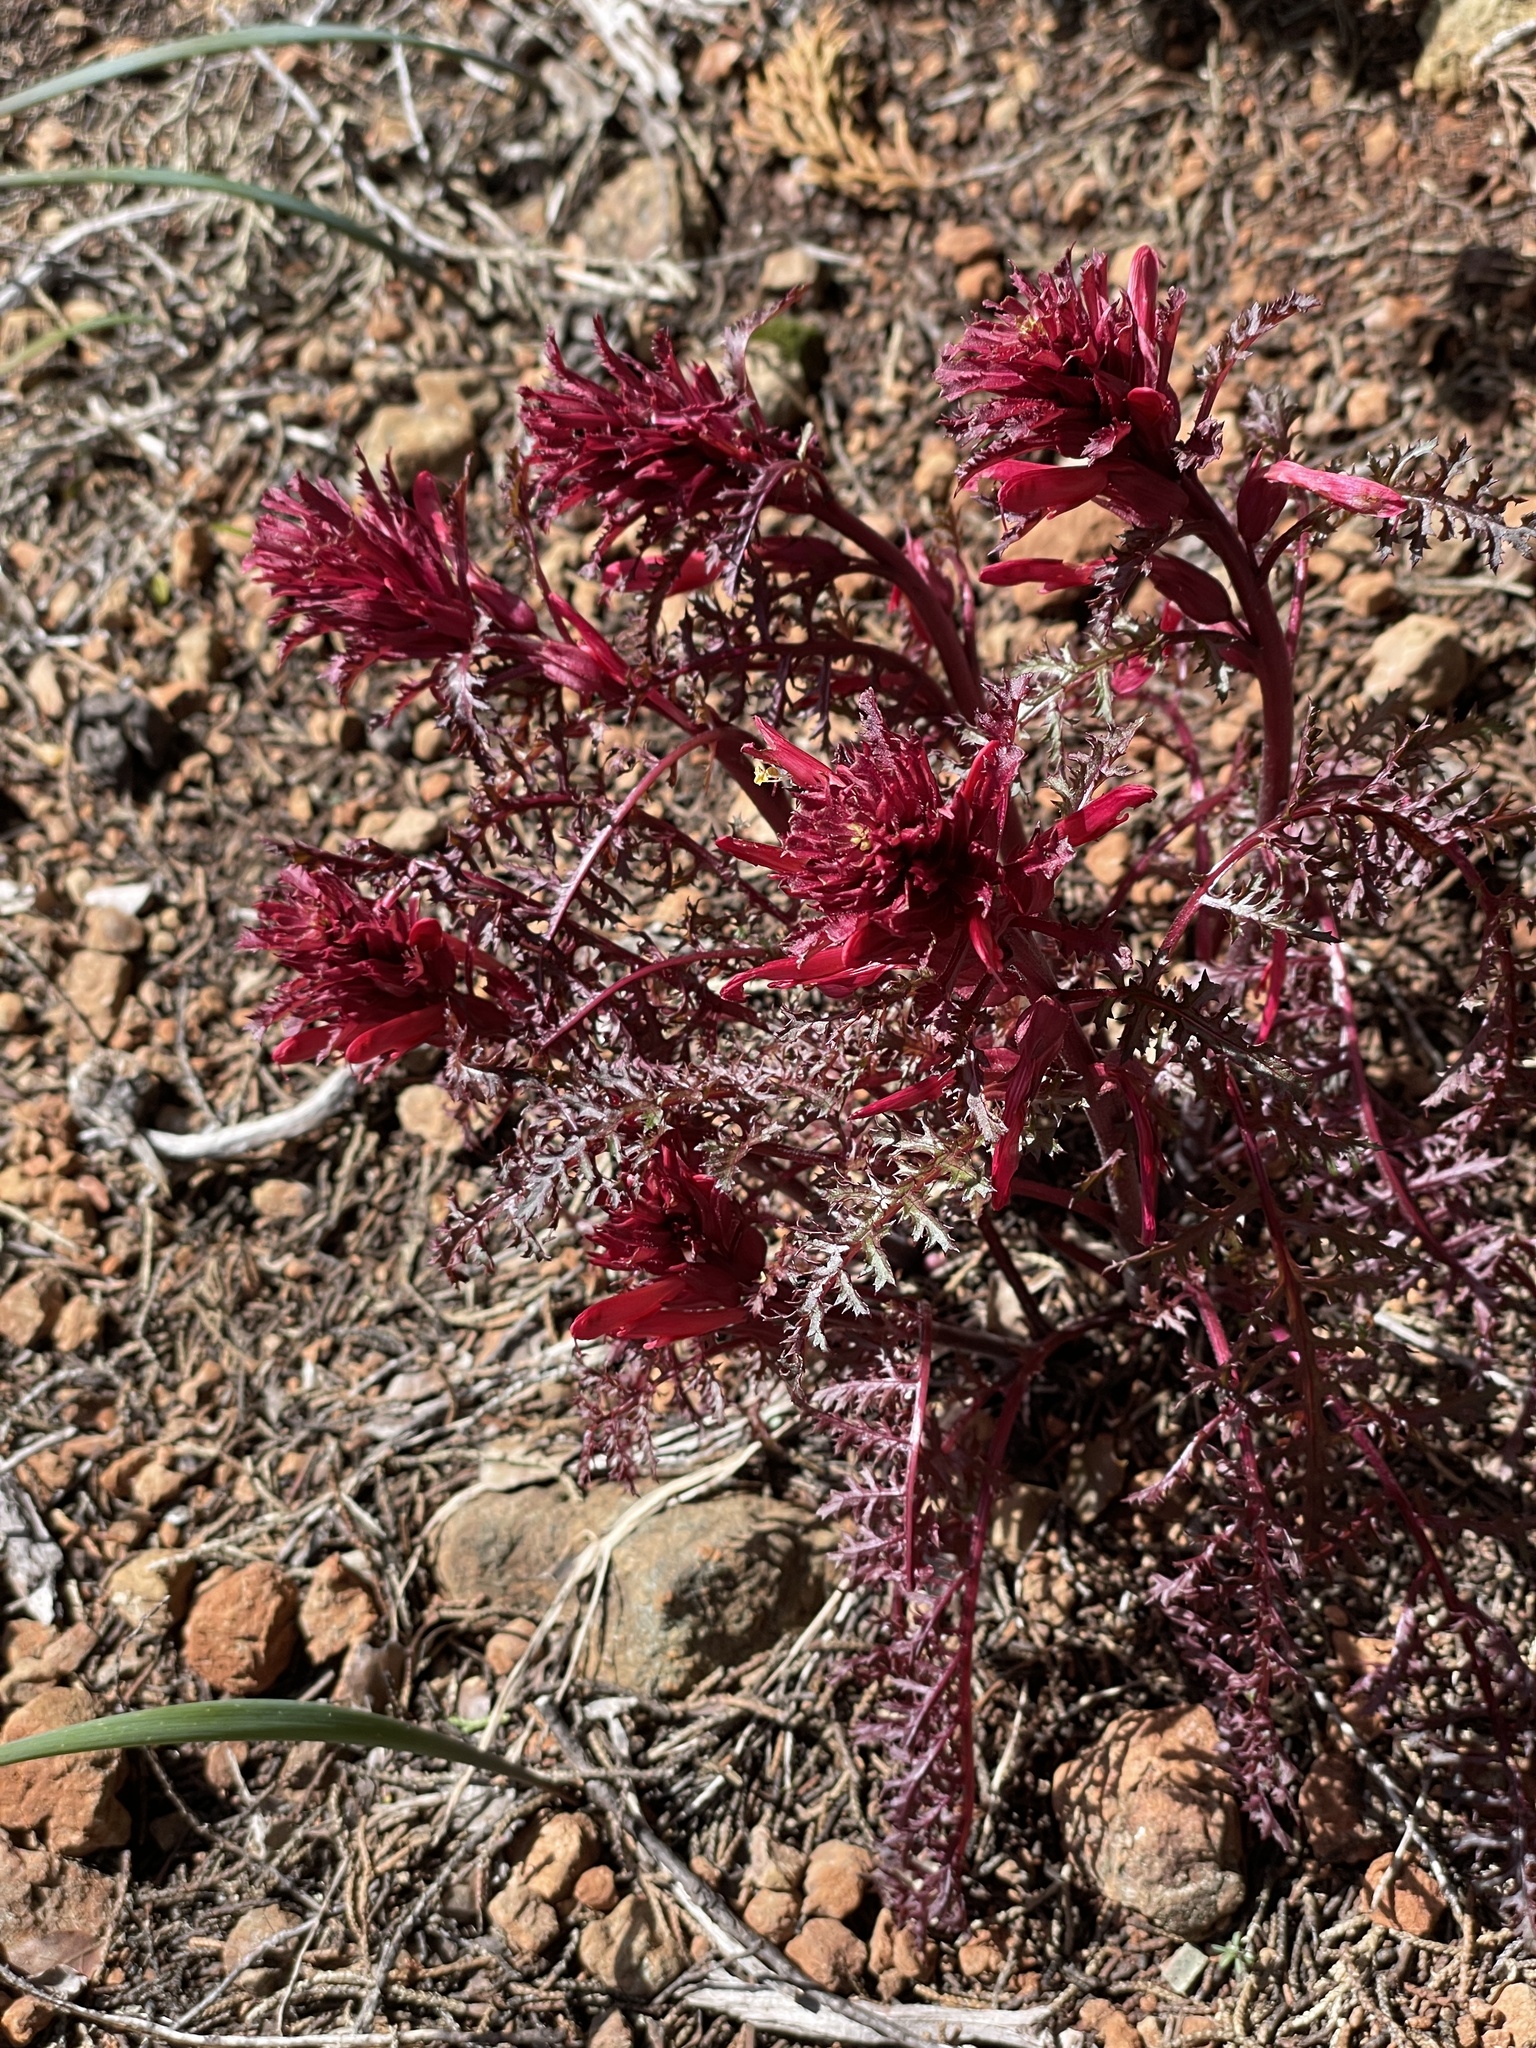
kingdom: Plantae
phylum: Tracheophyta
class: Magnoliopsida
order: Lamiales
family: Orobanchaceae
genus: Pedicularis
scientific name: Pedicularis densiflora
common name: Indian warrior
